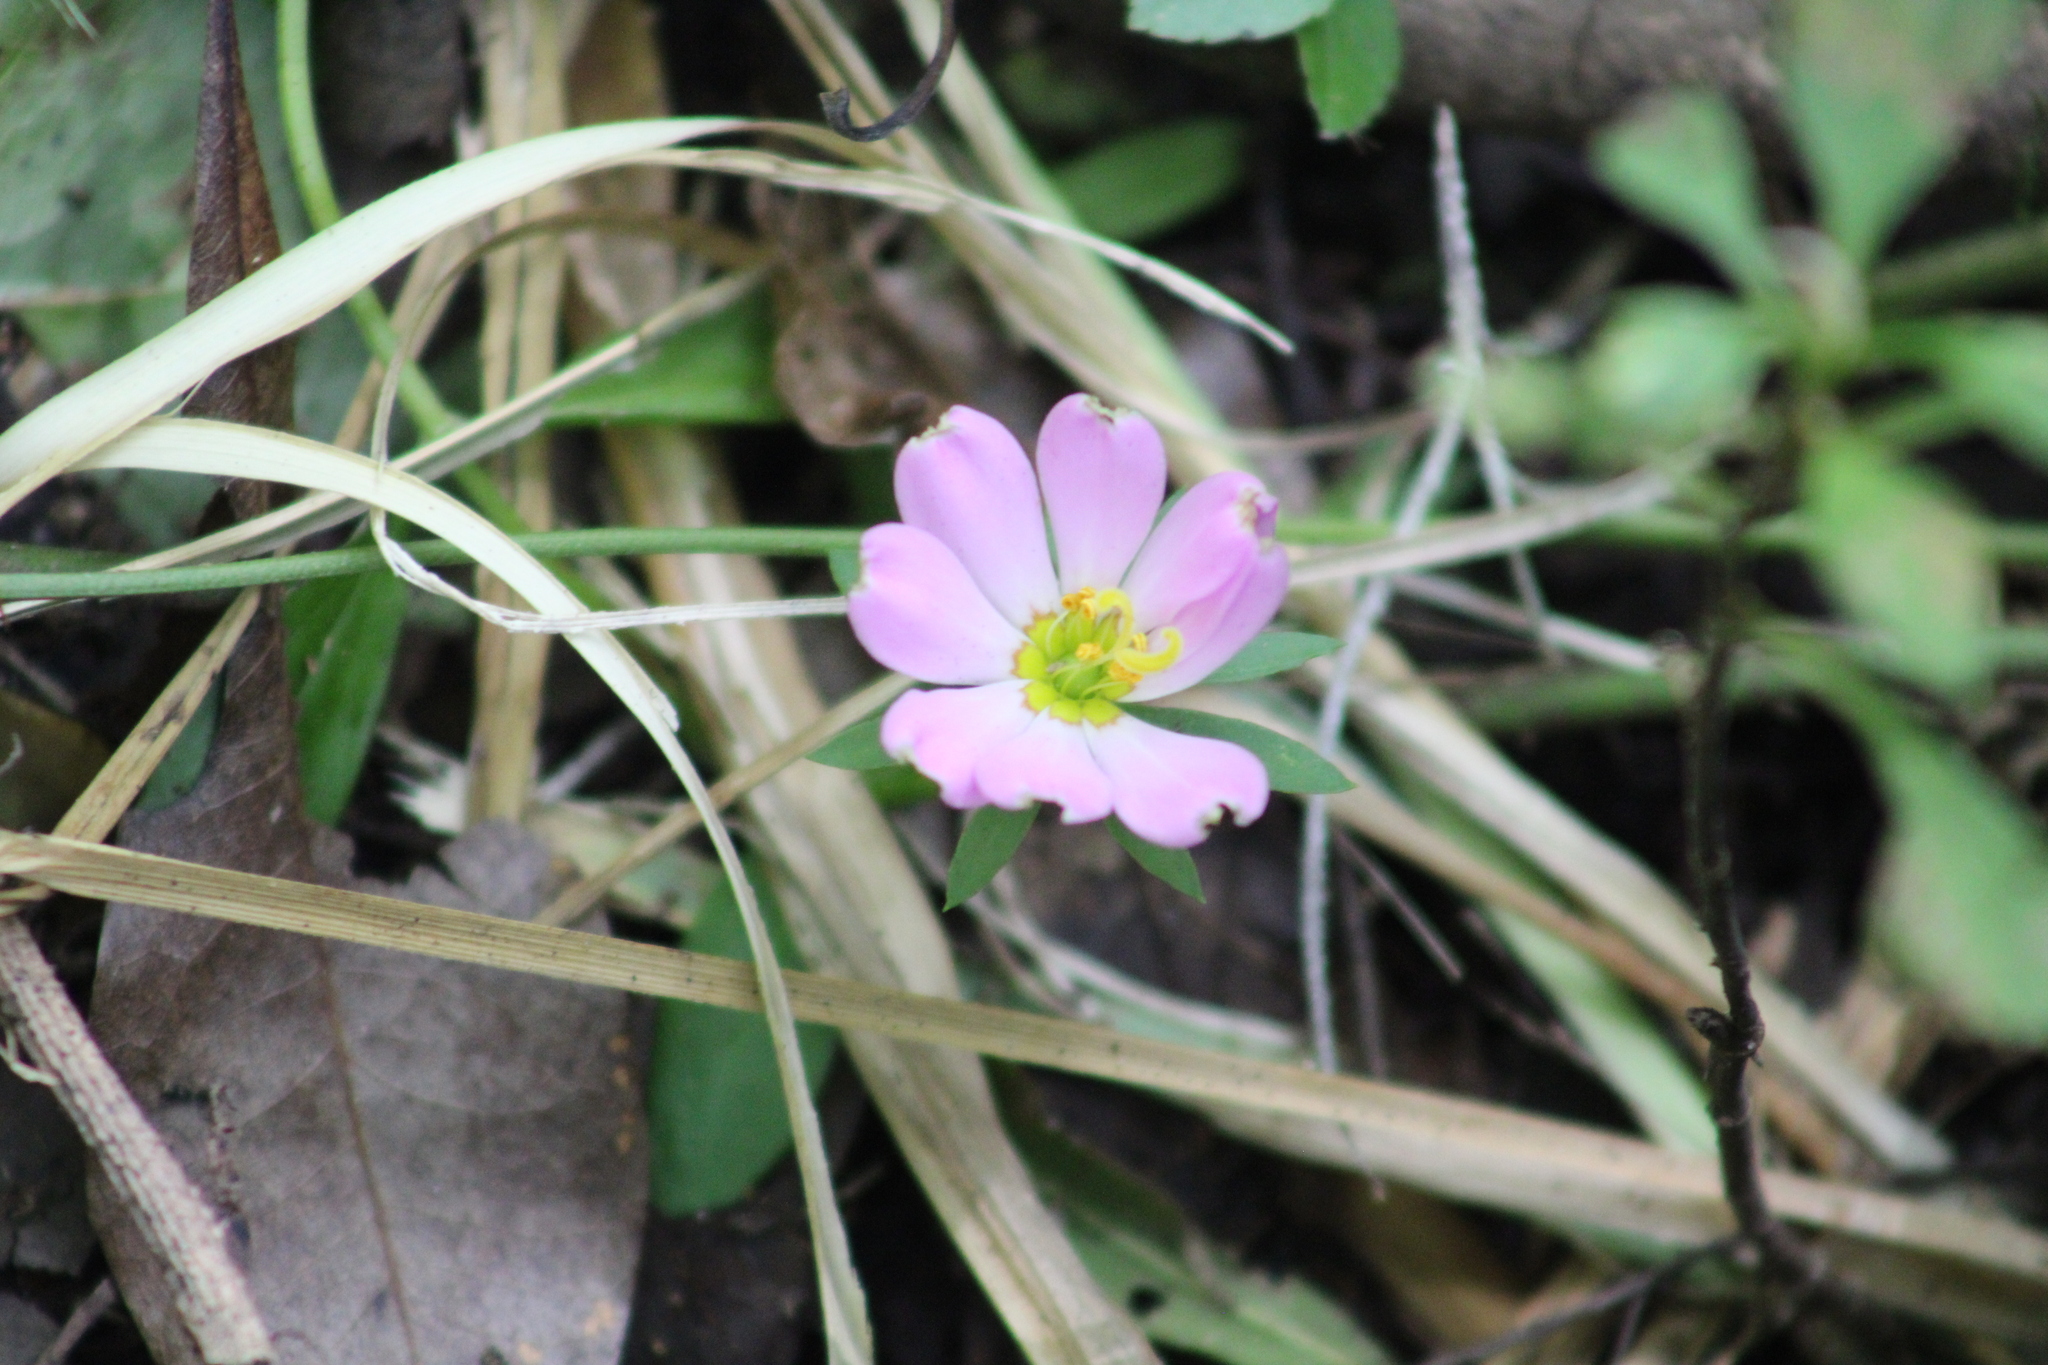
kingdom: Plantae
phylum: Tracheophyta
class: Magnoliopsida
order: Gentianales
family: Gentianaceae
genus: Sabatia
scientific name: Sabatia foliosa
